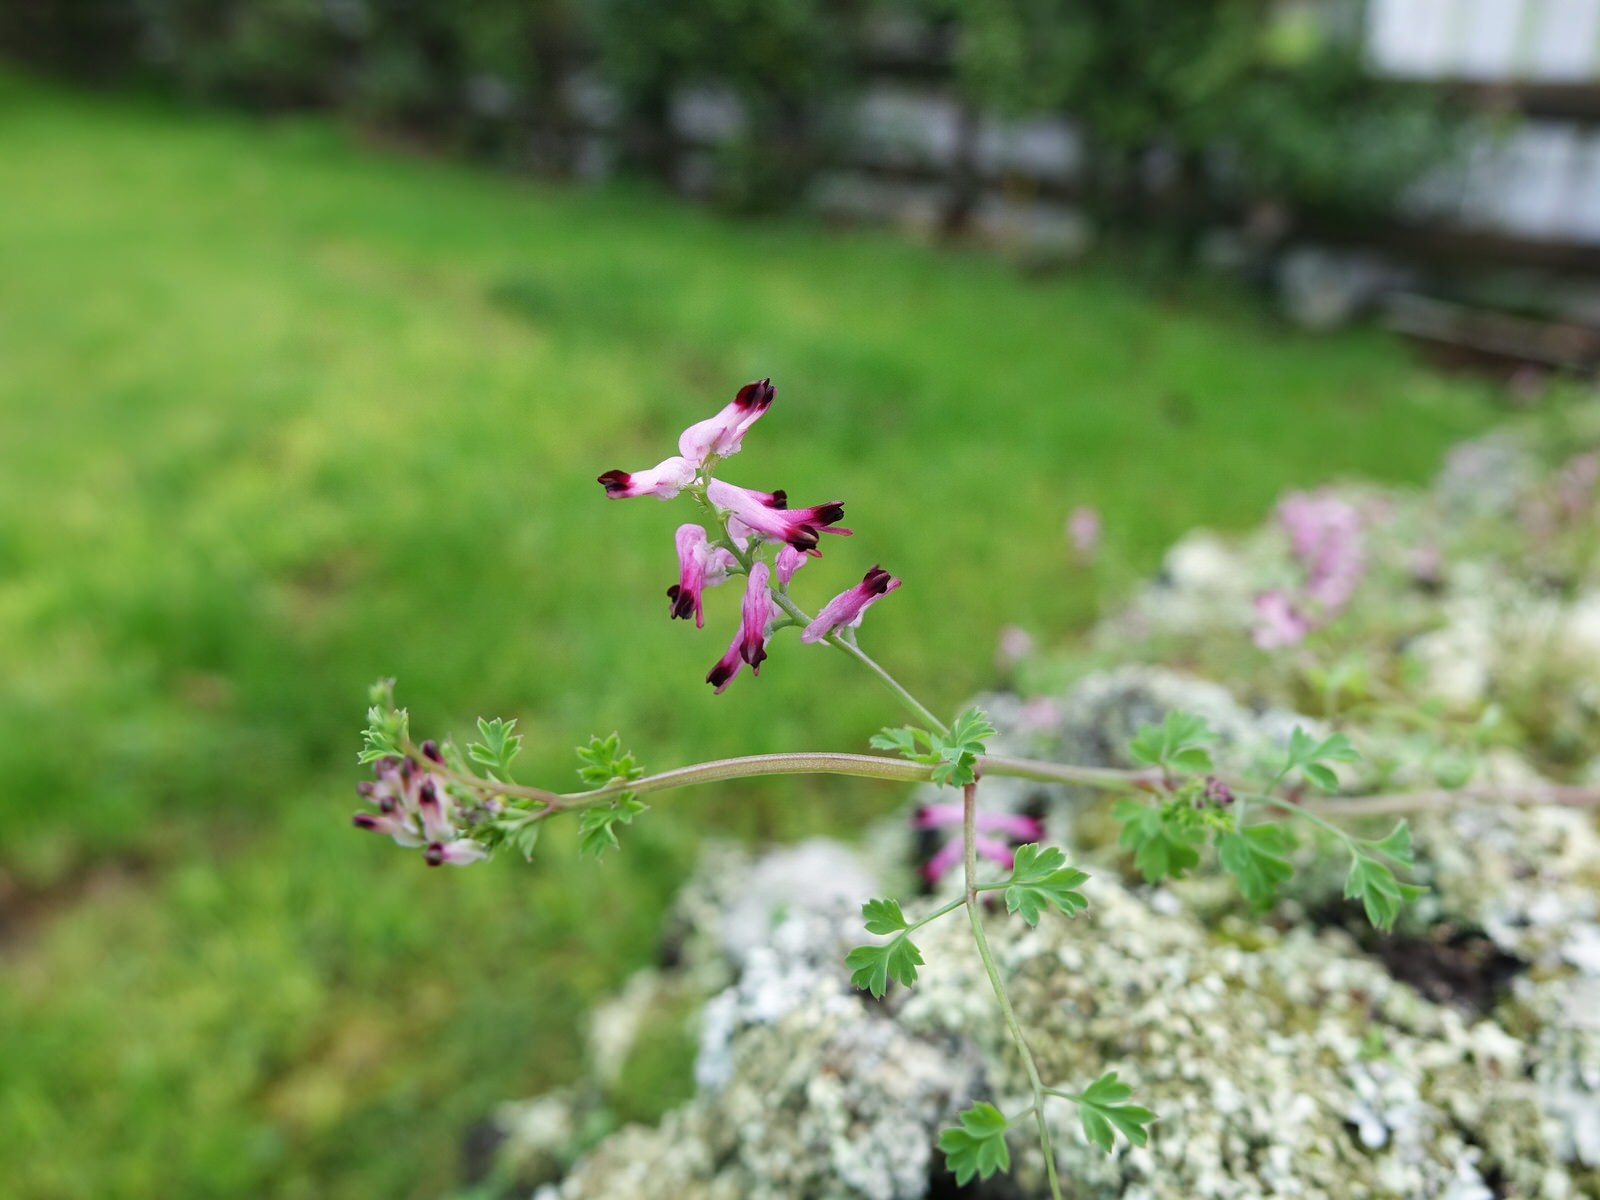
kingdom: Plantae
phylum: Tracheophyta
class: Magnoliopsida
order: Ranunculales
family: Papaveraceae
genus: Fumaria
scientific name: Fumaria muralis
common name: Common ramping-fumitory
